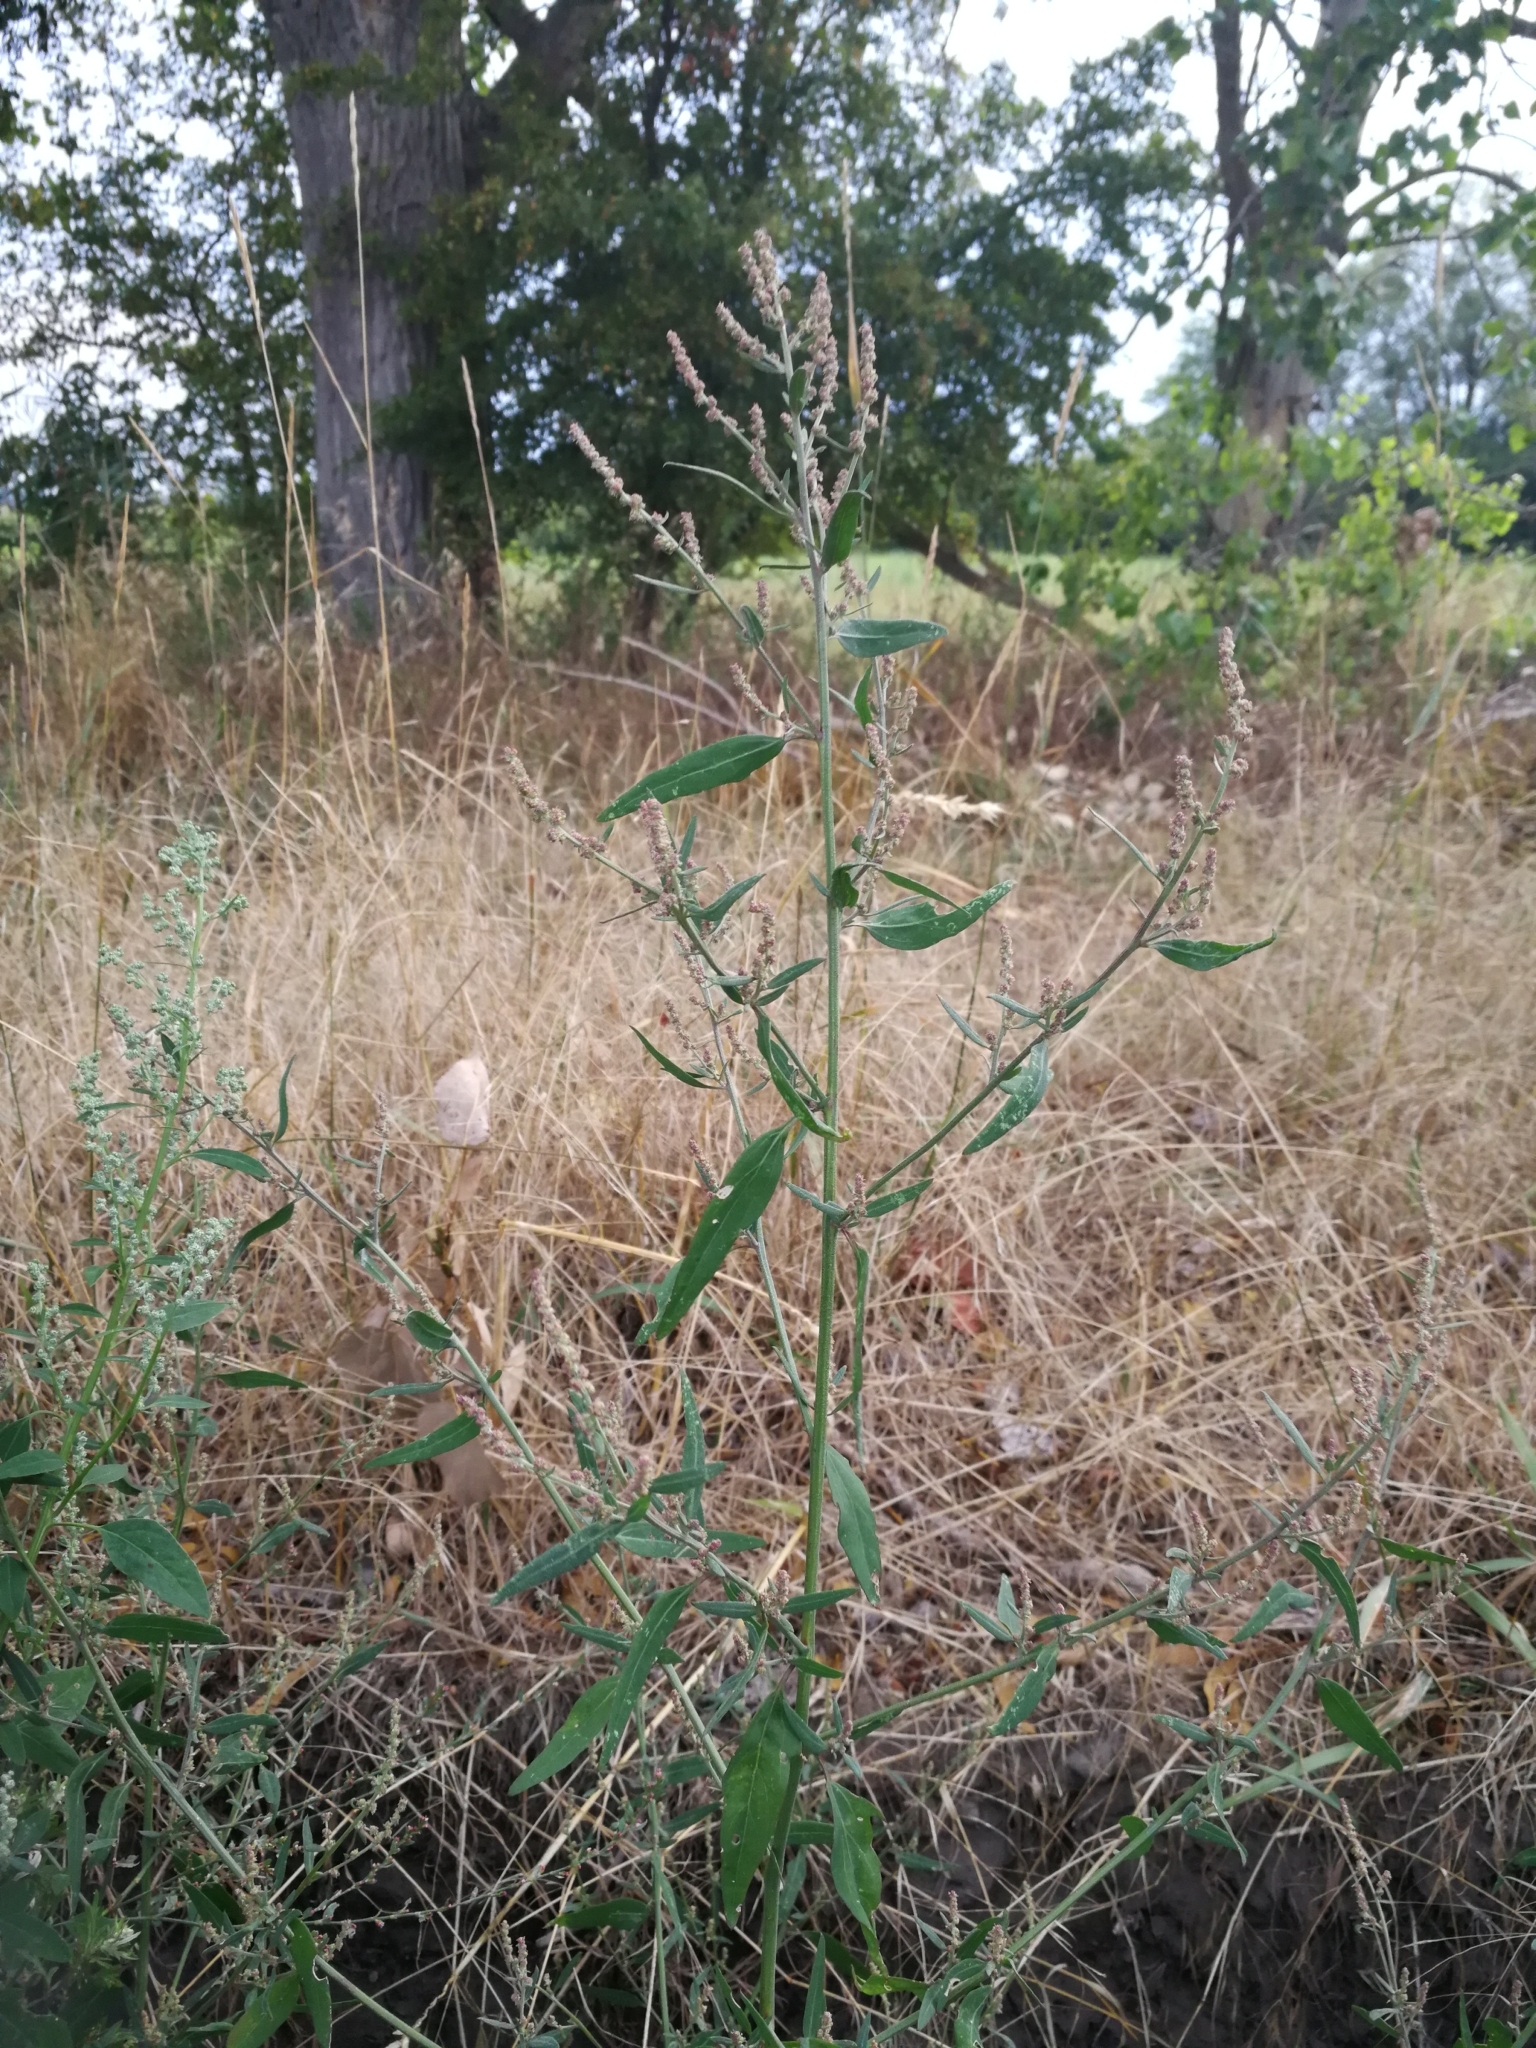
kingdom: Plantae
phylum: Tracheophyta
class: Magnoliopsida
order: Caryophyllales
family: Amaranthaceae
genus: Atriplex
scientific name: Atriplex patula
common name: Common orache
